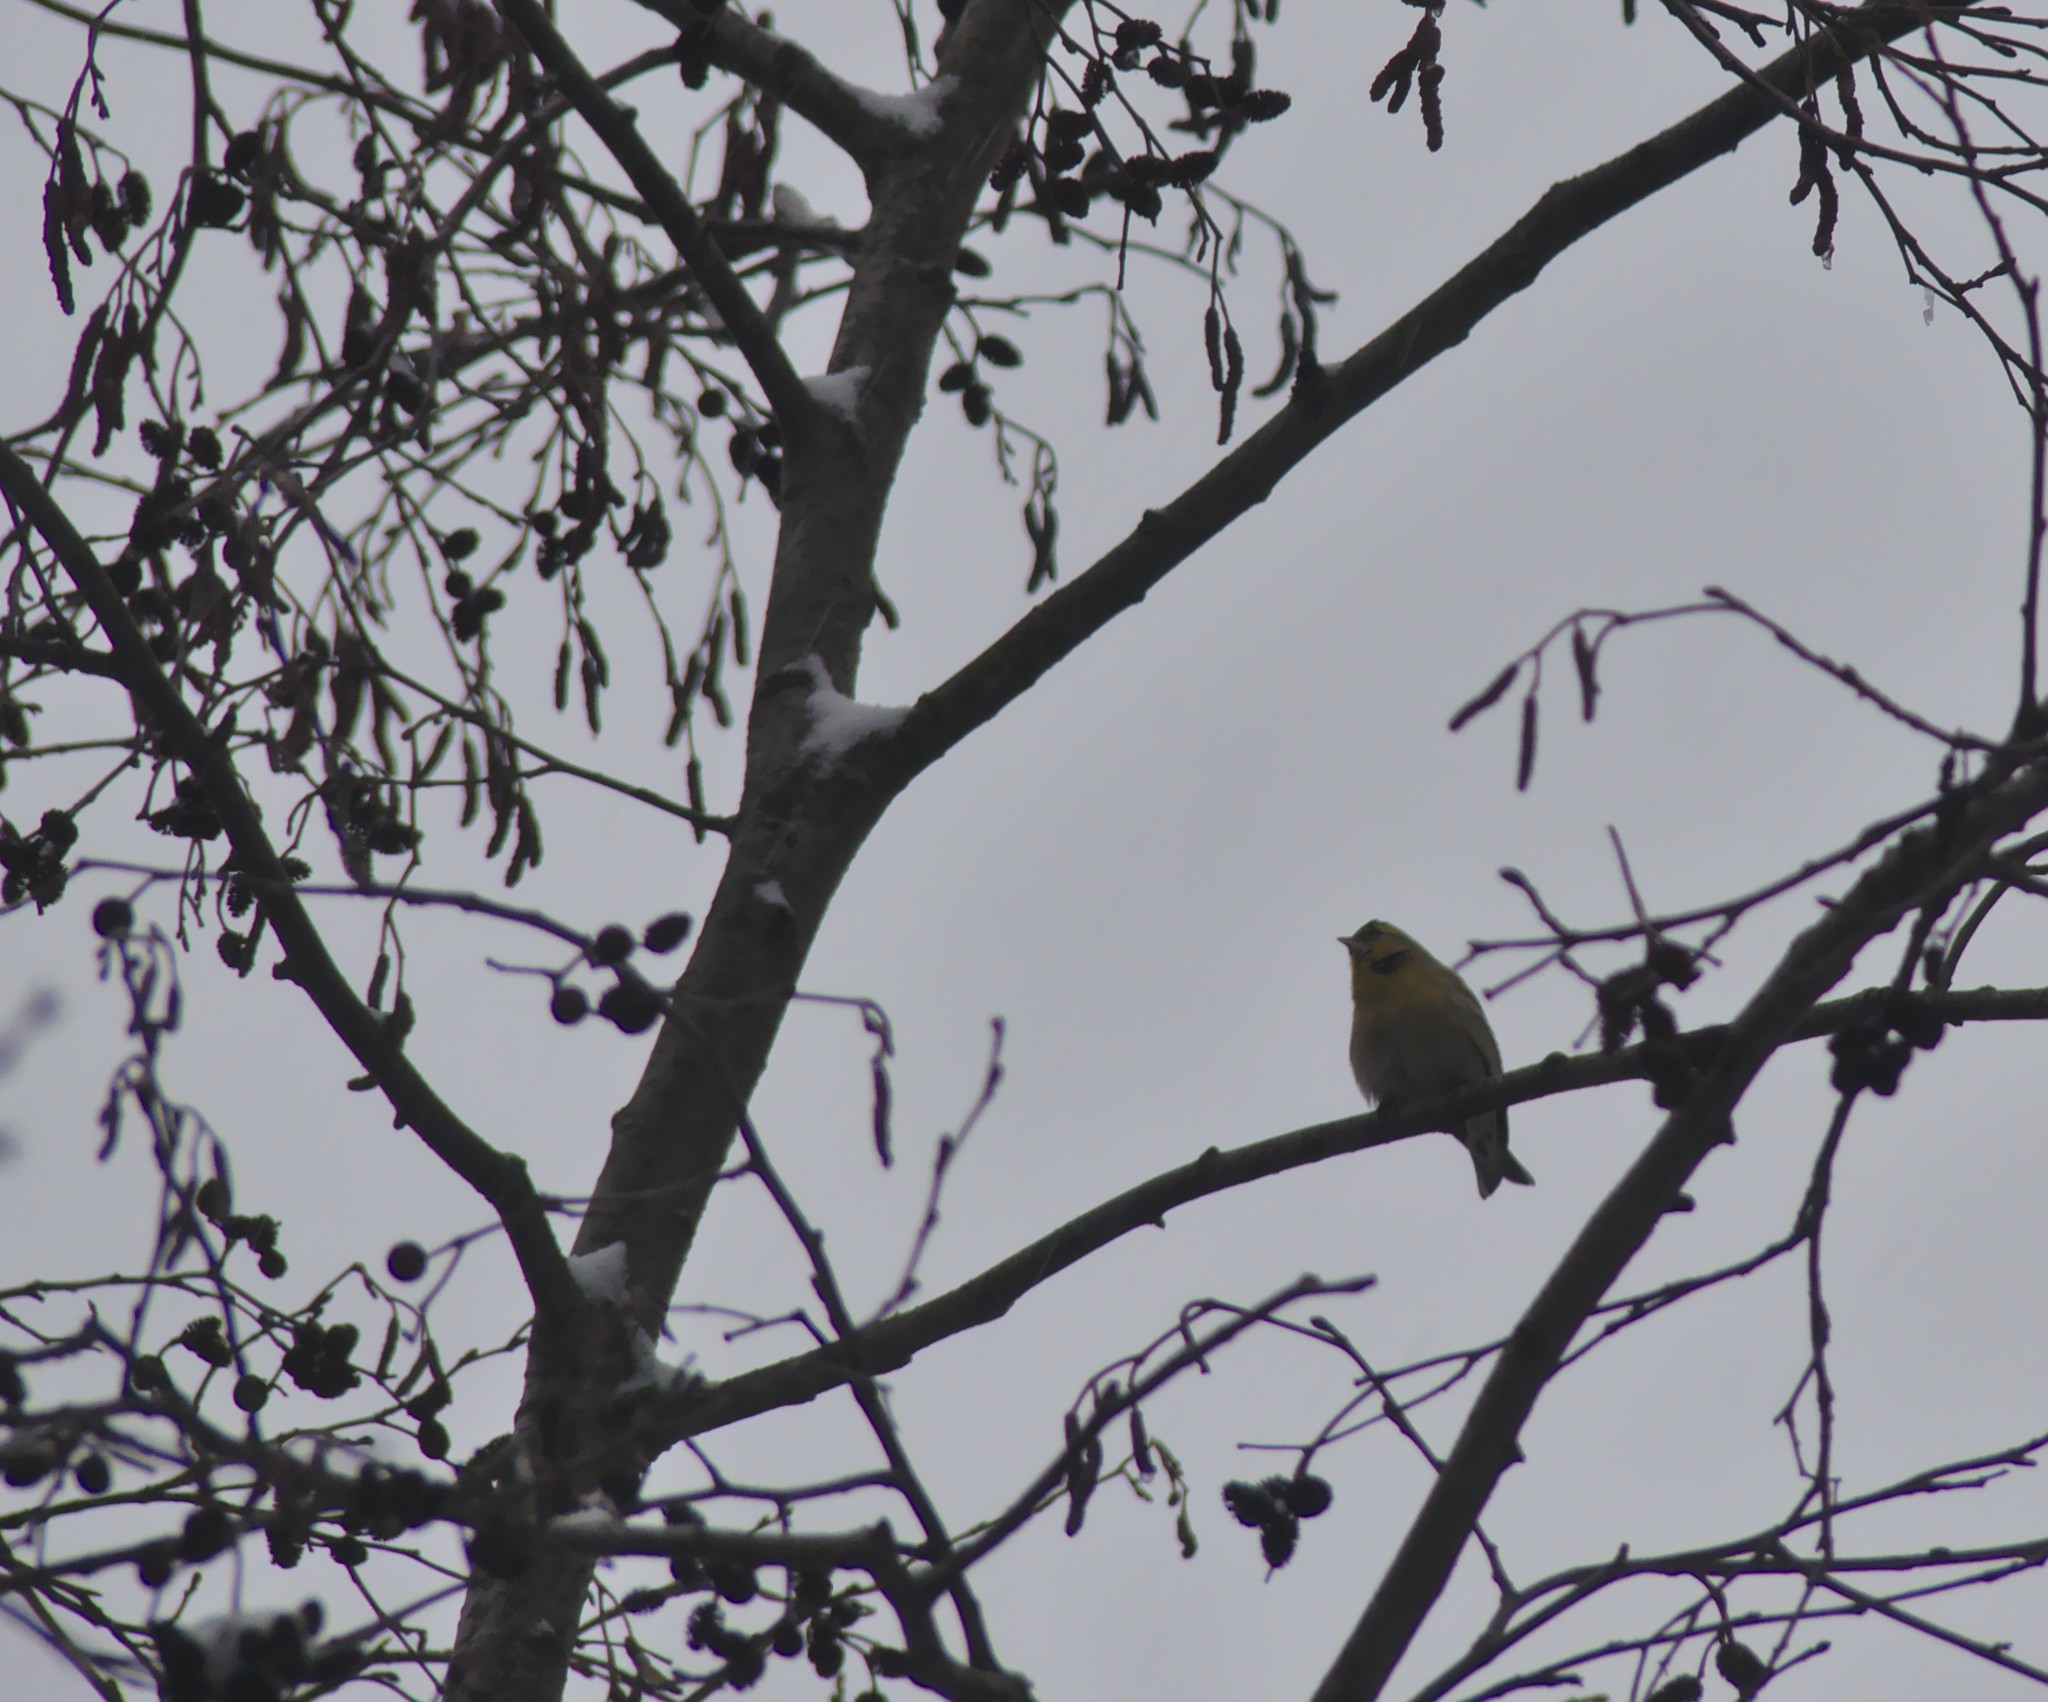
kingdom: Animalia
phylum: Chordata
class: Aves
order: Passeriformes
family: Fringillidae
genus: Spinus
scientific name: Spinus spinus
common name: Eurasian siskin
